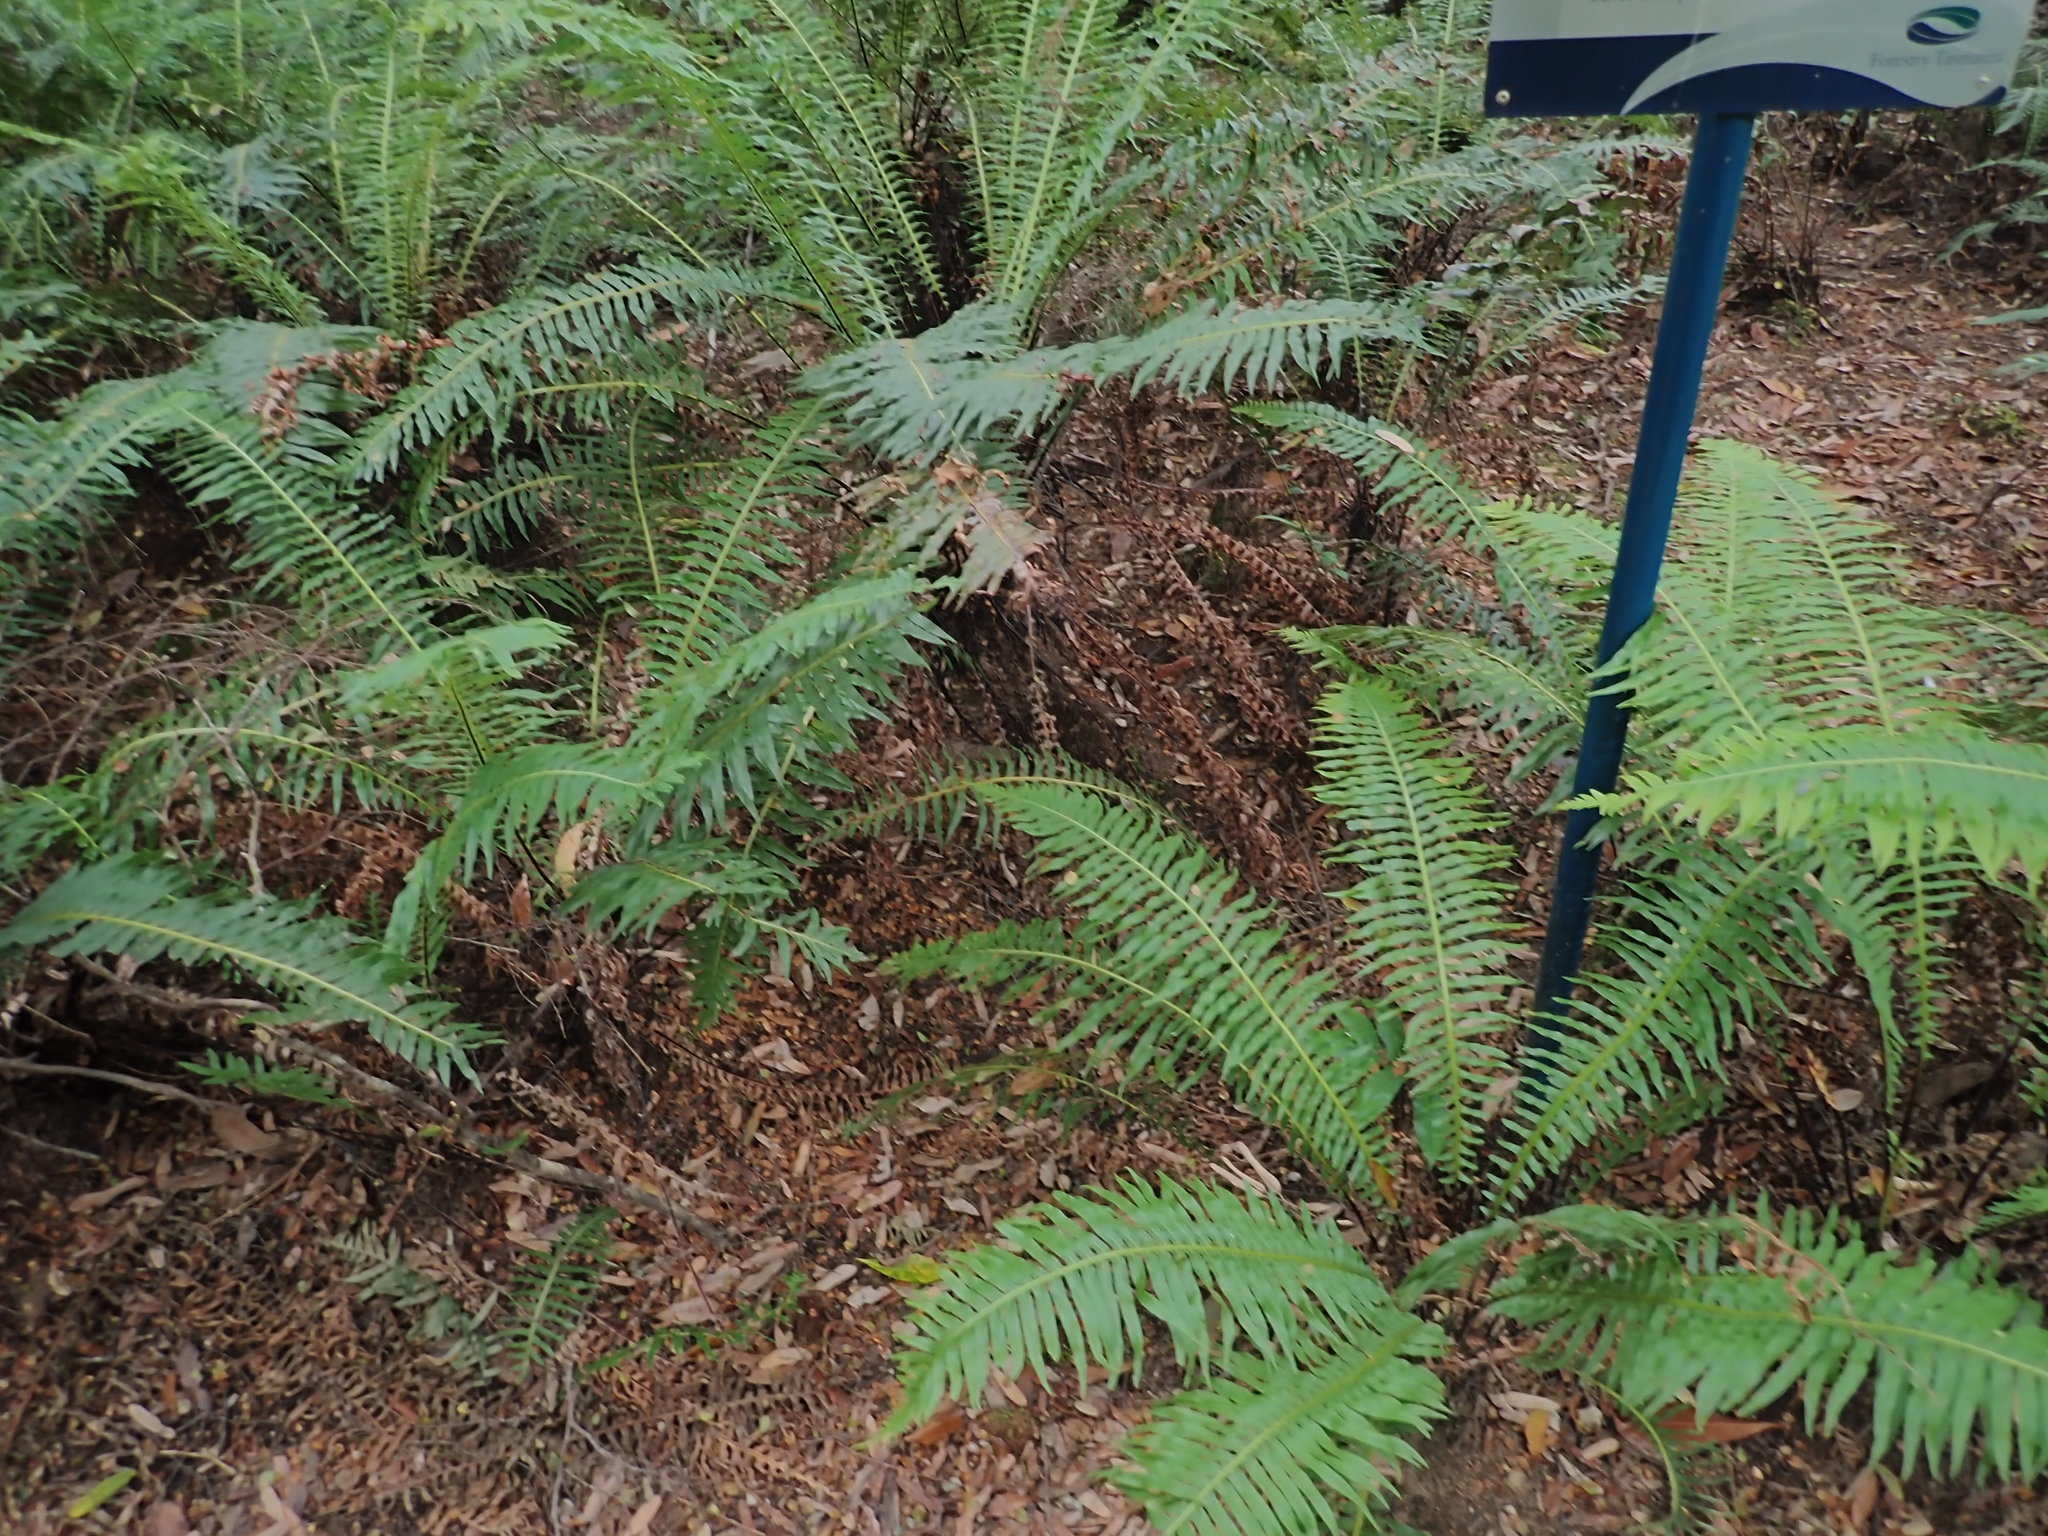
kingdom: Plantae
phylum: Tracheophyta
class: Polypodiopsida
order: Polypodiales
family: Blechnaceae
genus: Lomaria
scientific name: Lomaria nuda
